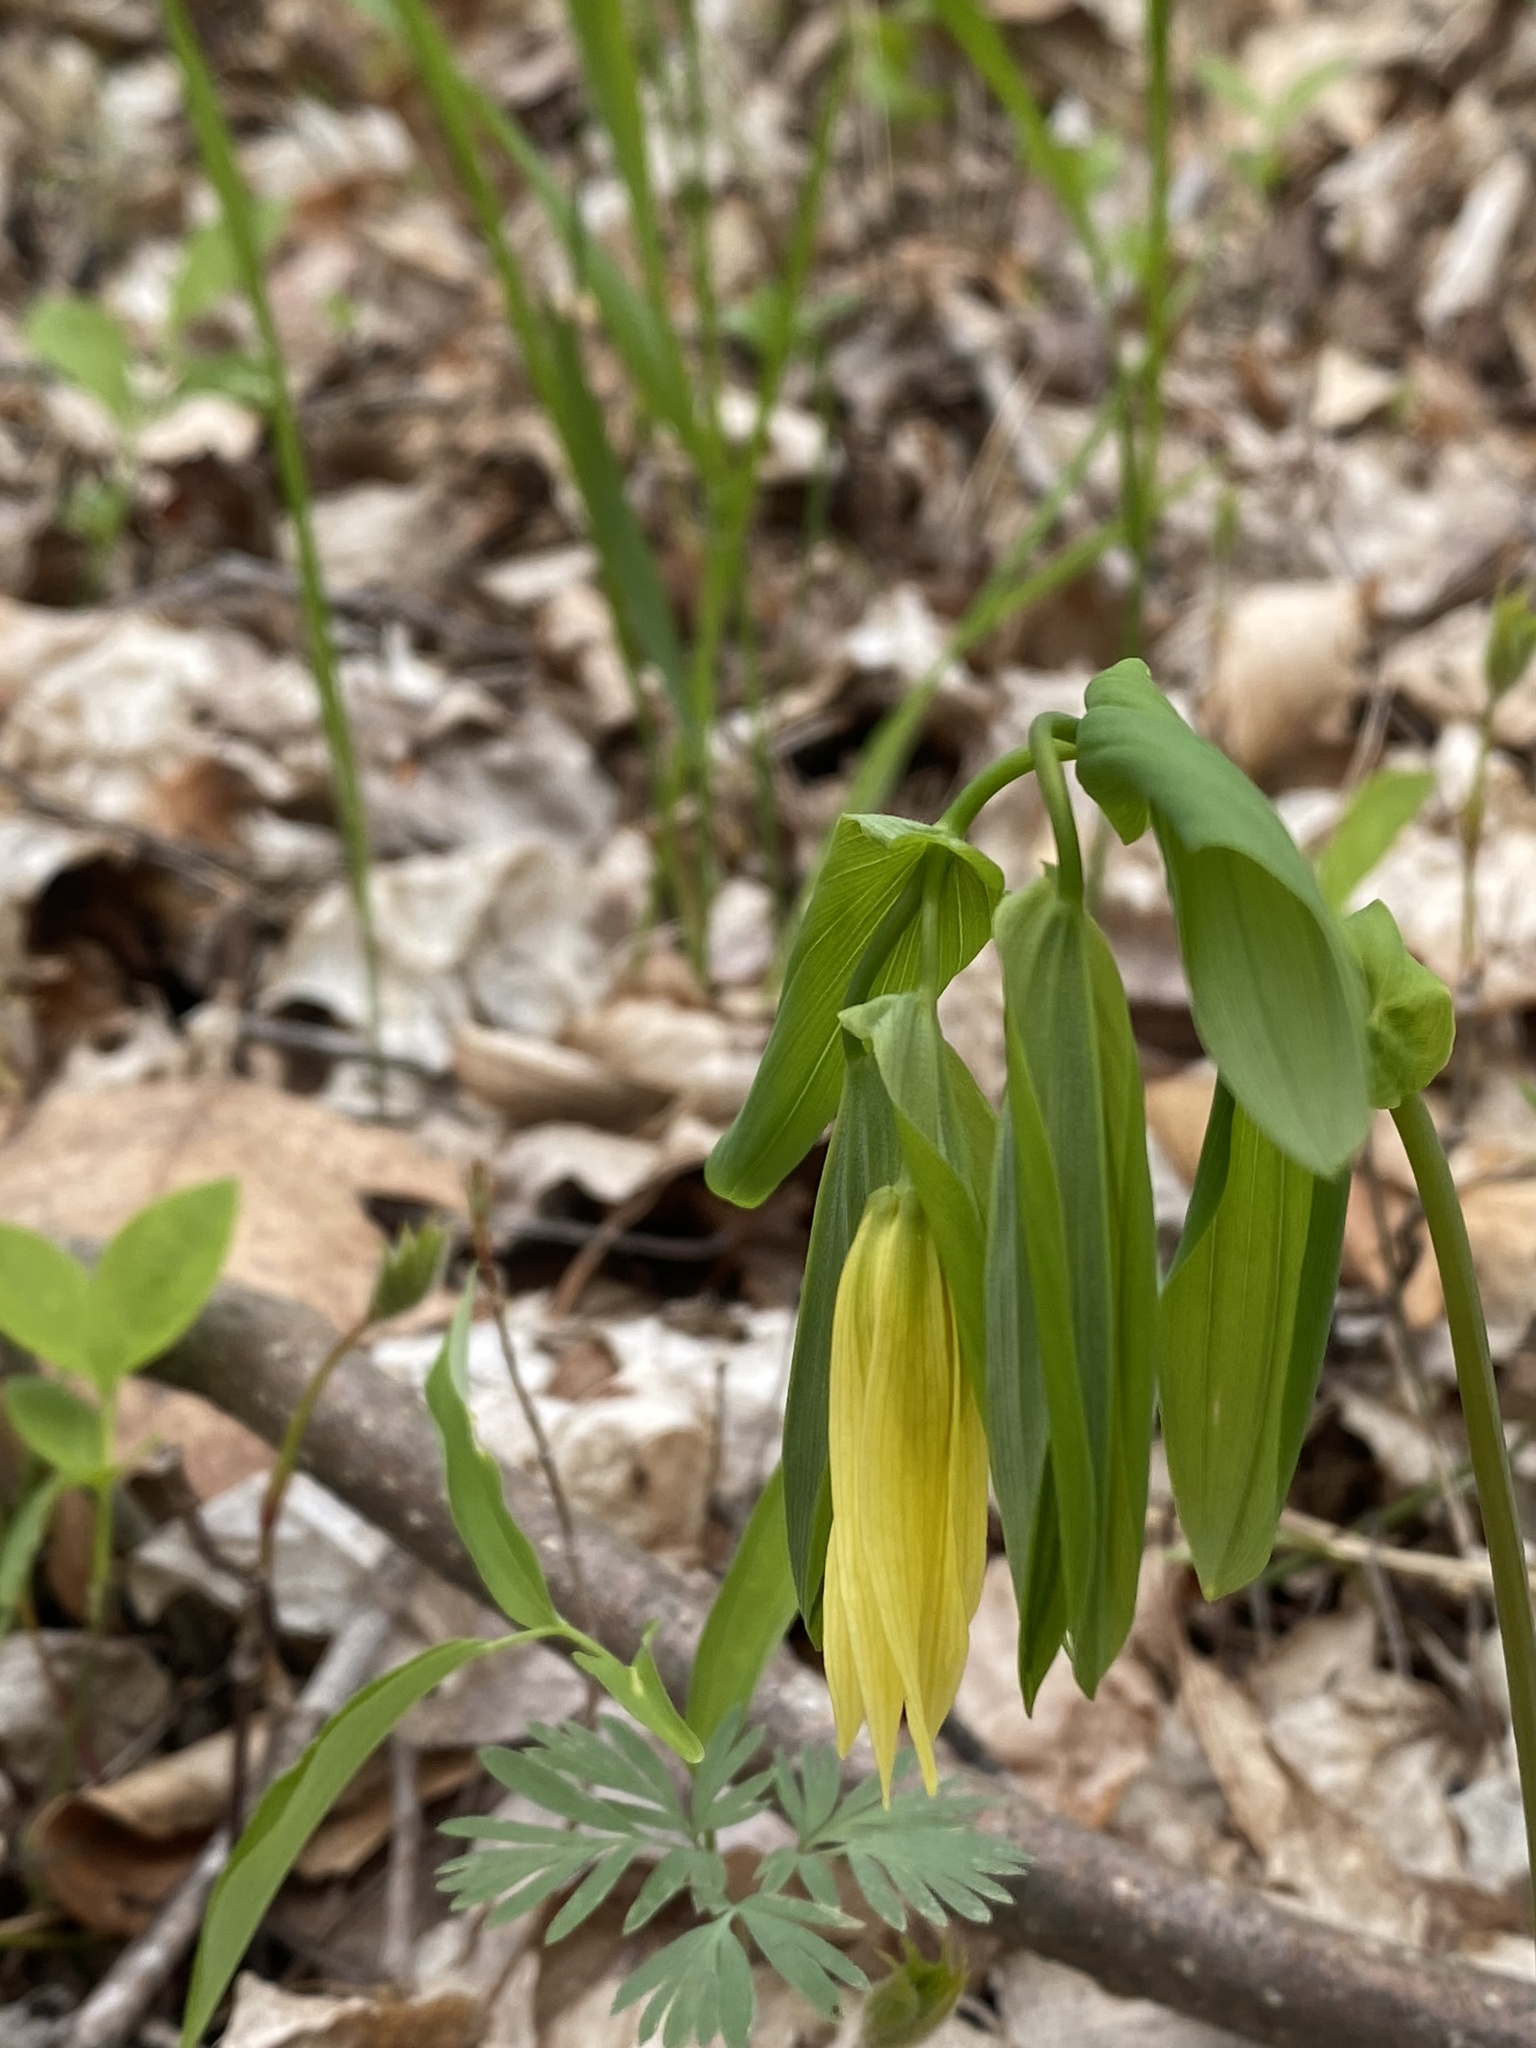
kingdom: Plantae
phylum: Tracheophyta
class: Liliopsida
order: Liliales
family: Colchicaceae
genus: Uvularia
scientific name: Uvularia grandiflora
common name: Bellwort
